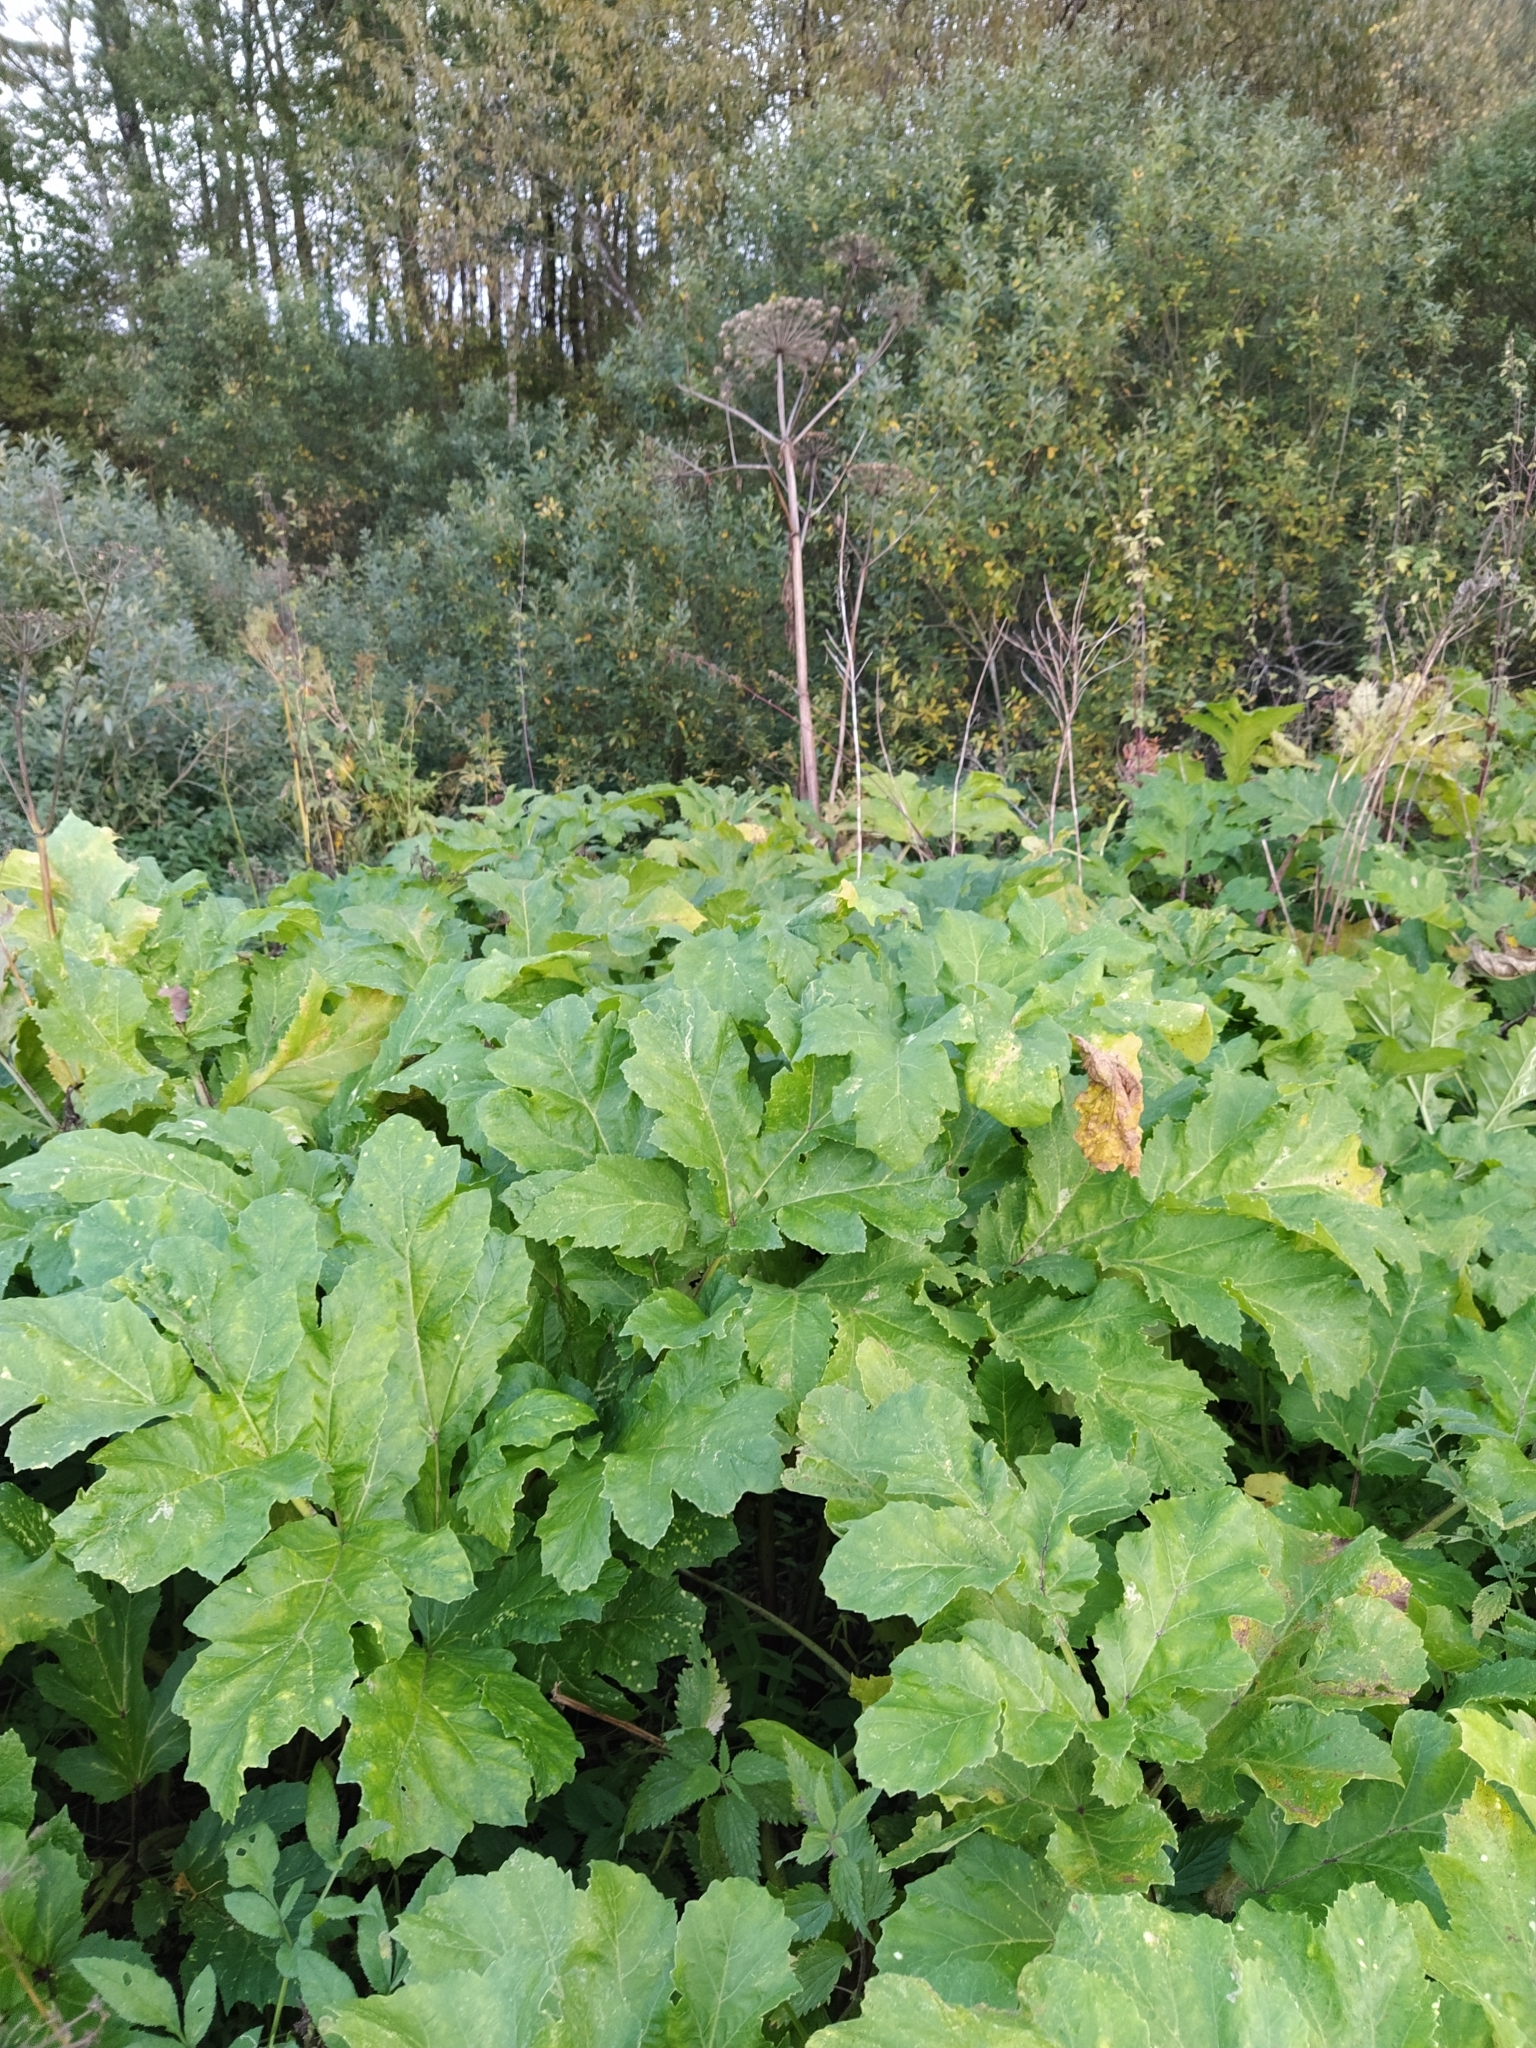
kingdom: Plantae
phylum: Tracheophyta
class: Magnoliopsida
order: Apiales
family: Apiaceae
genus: Heracleum
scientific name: Heracleum sosnowskyi
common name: Sosnowsky's hogweed
